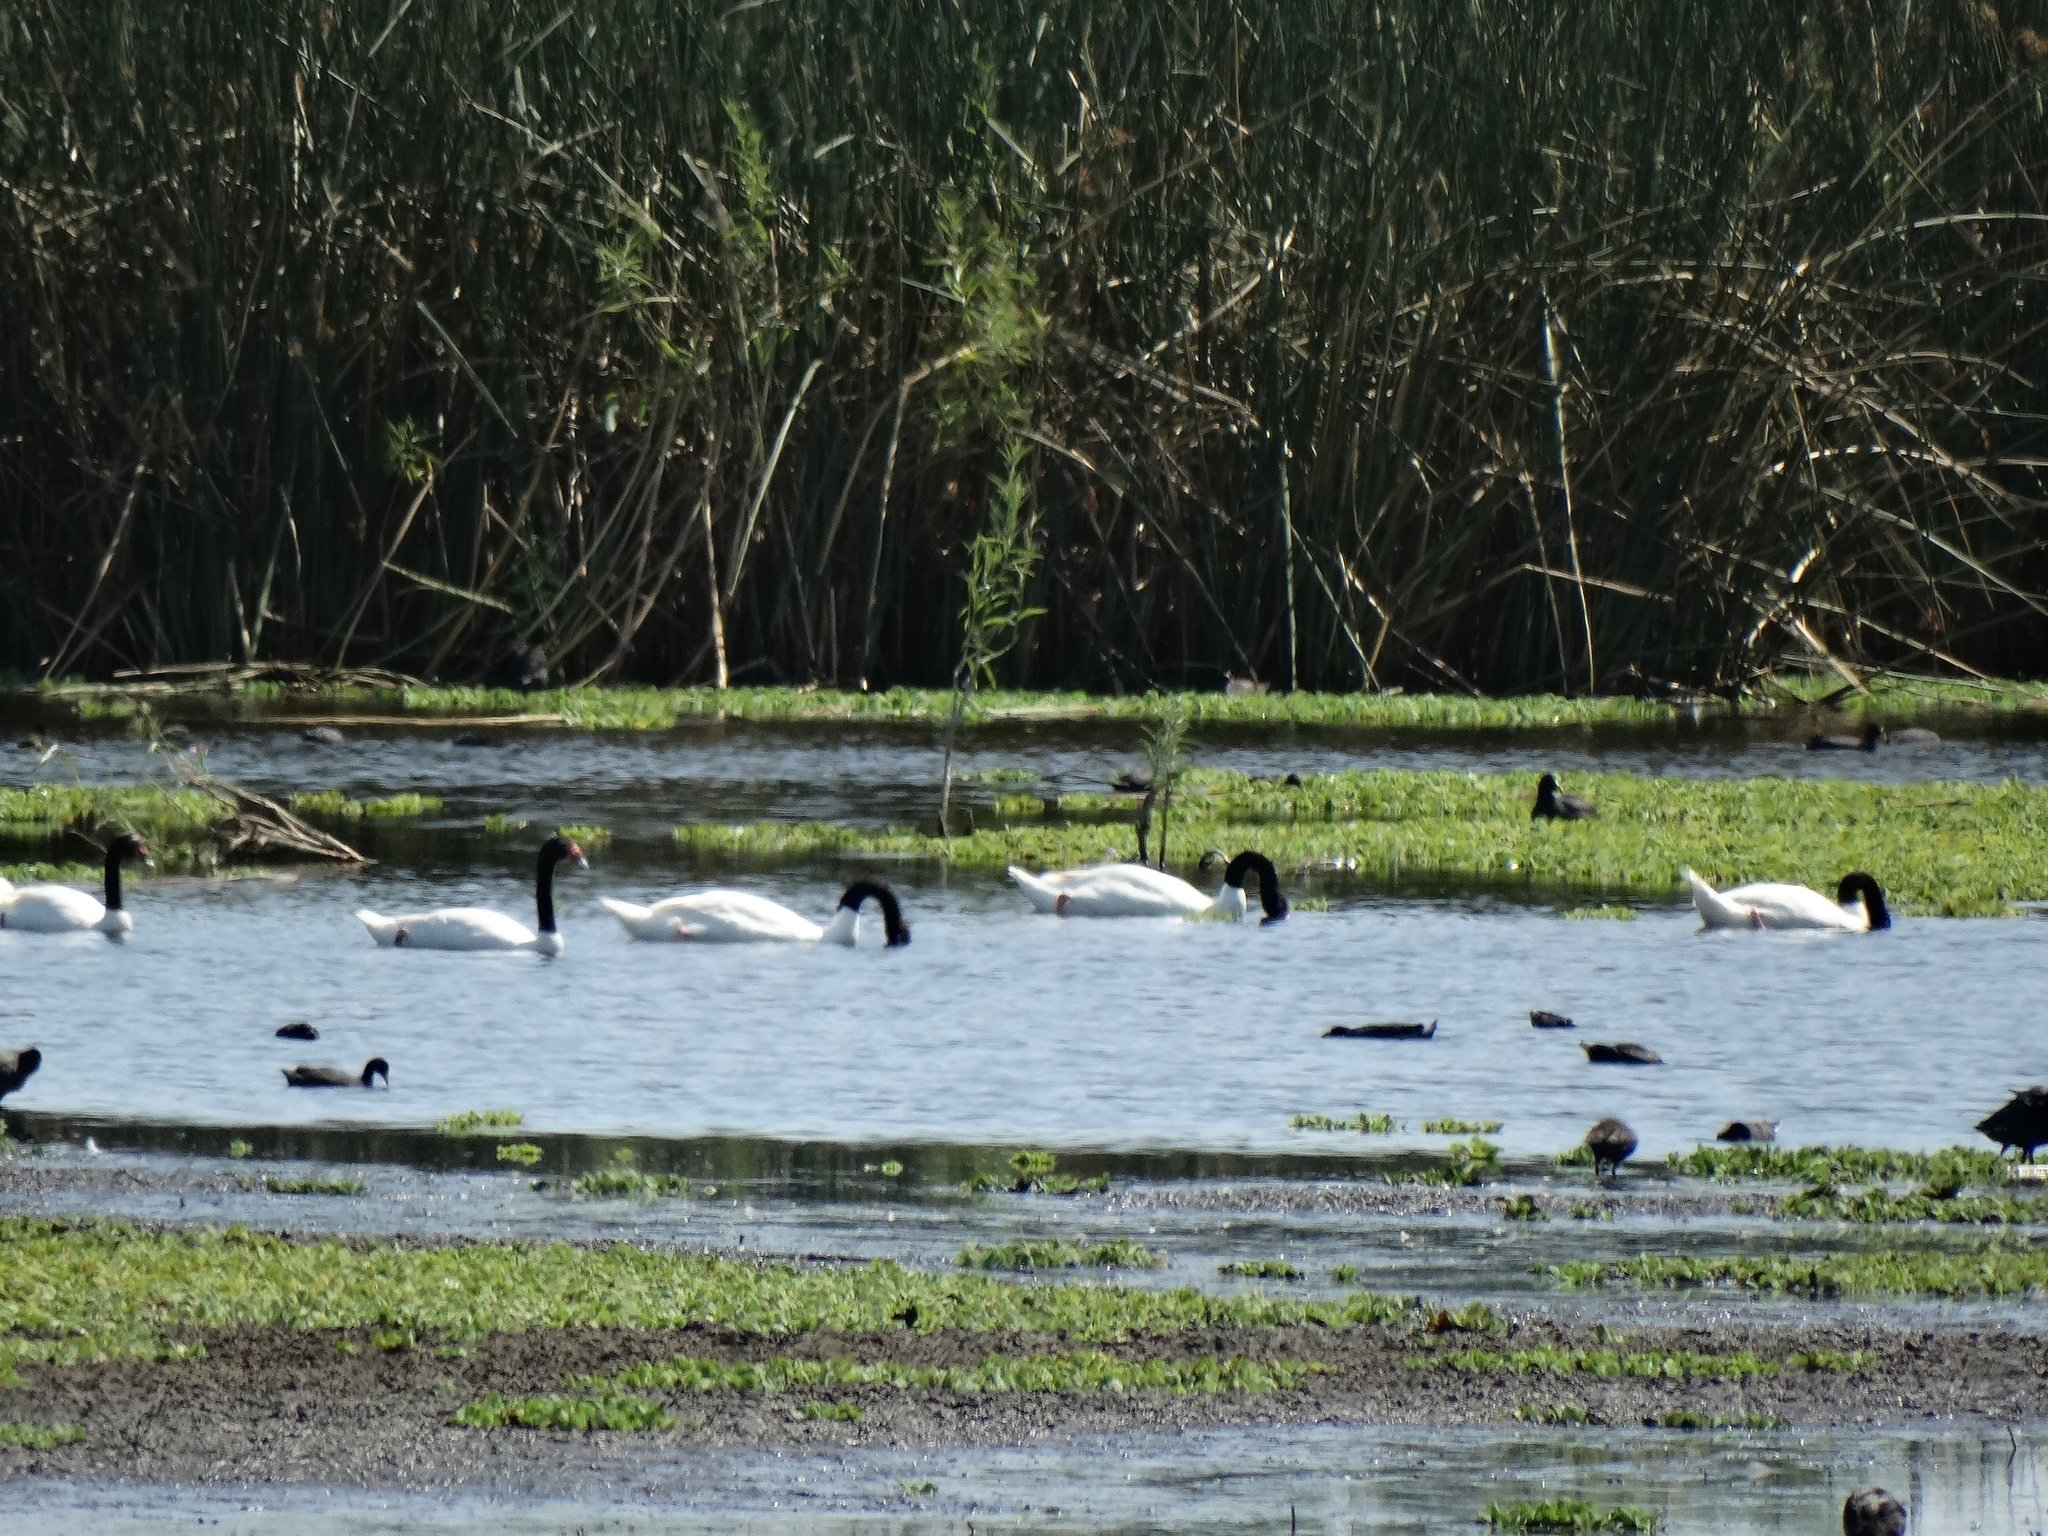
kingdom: Animalia
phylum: Chordata
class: Aves
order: Anseriformes
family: Anatidae
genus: Cygnus
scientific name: Cygnus melancoryphus
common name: Black-necked swan
